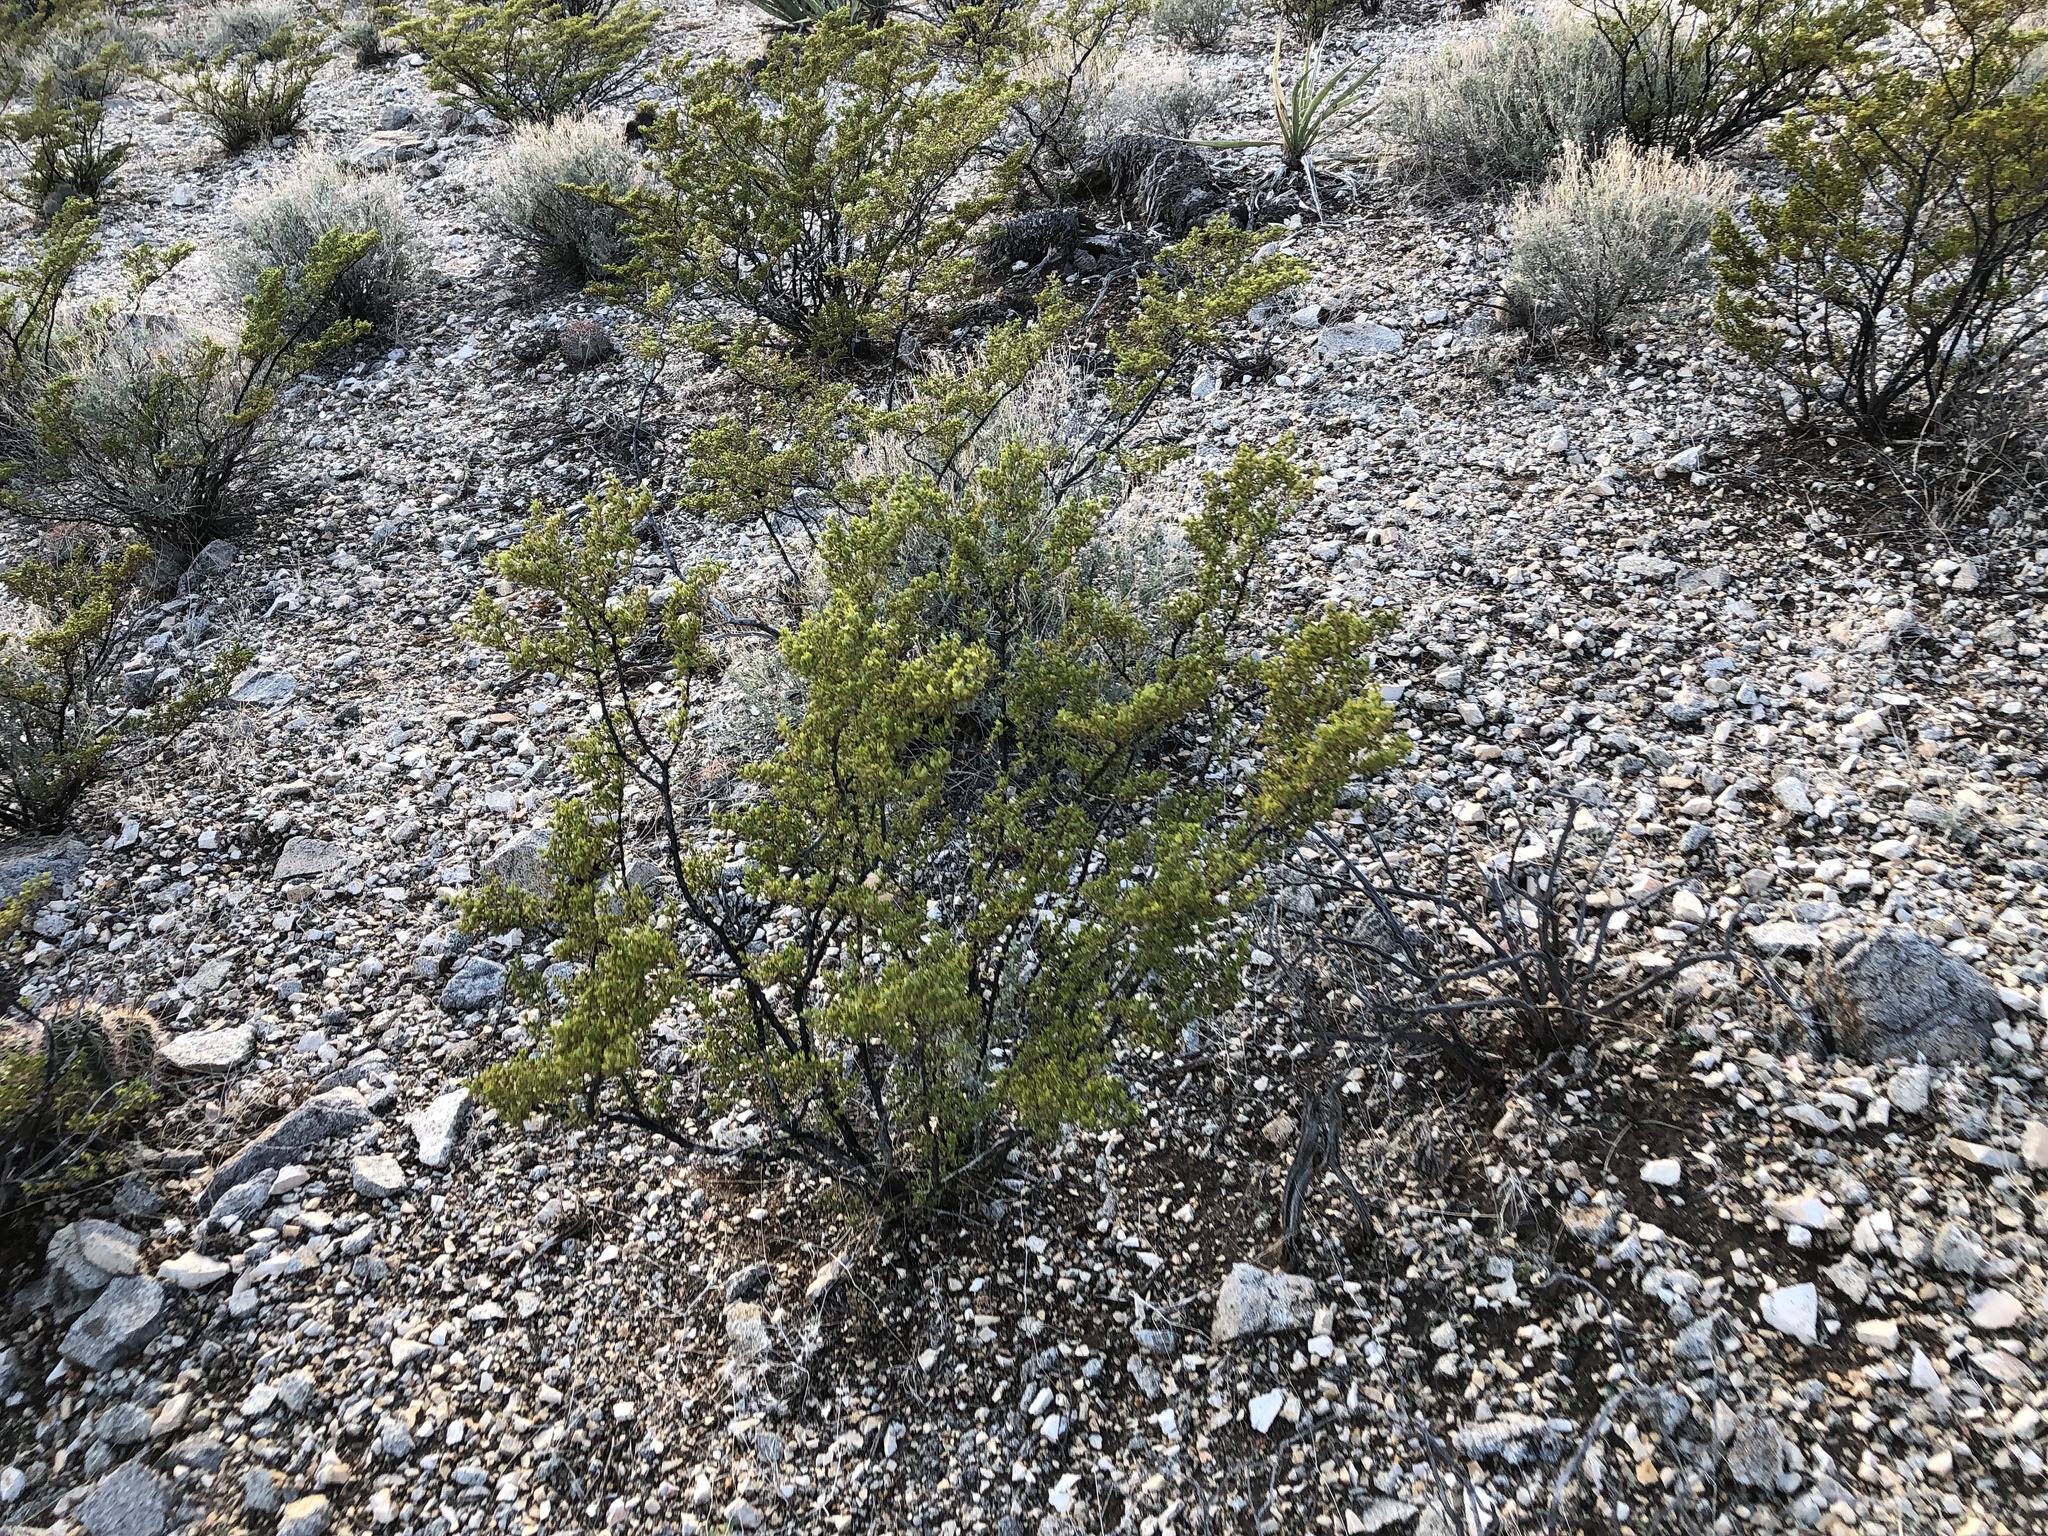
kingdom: Plantae
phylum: Tracheophyta
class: Magnoliopsida
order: Zygophyllales
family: Zygophyllaceae
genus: Larrea
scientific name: Larrea tridentata
